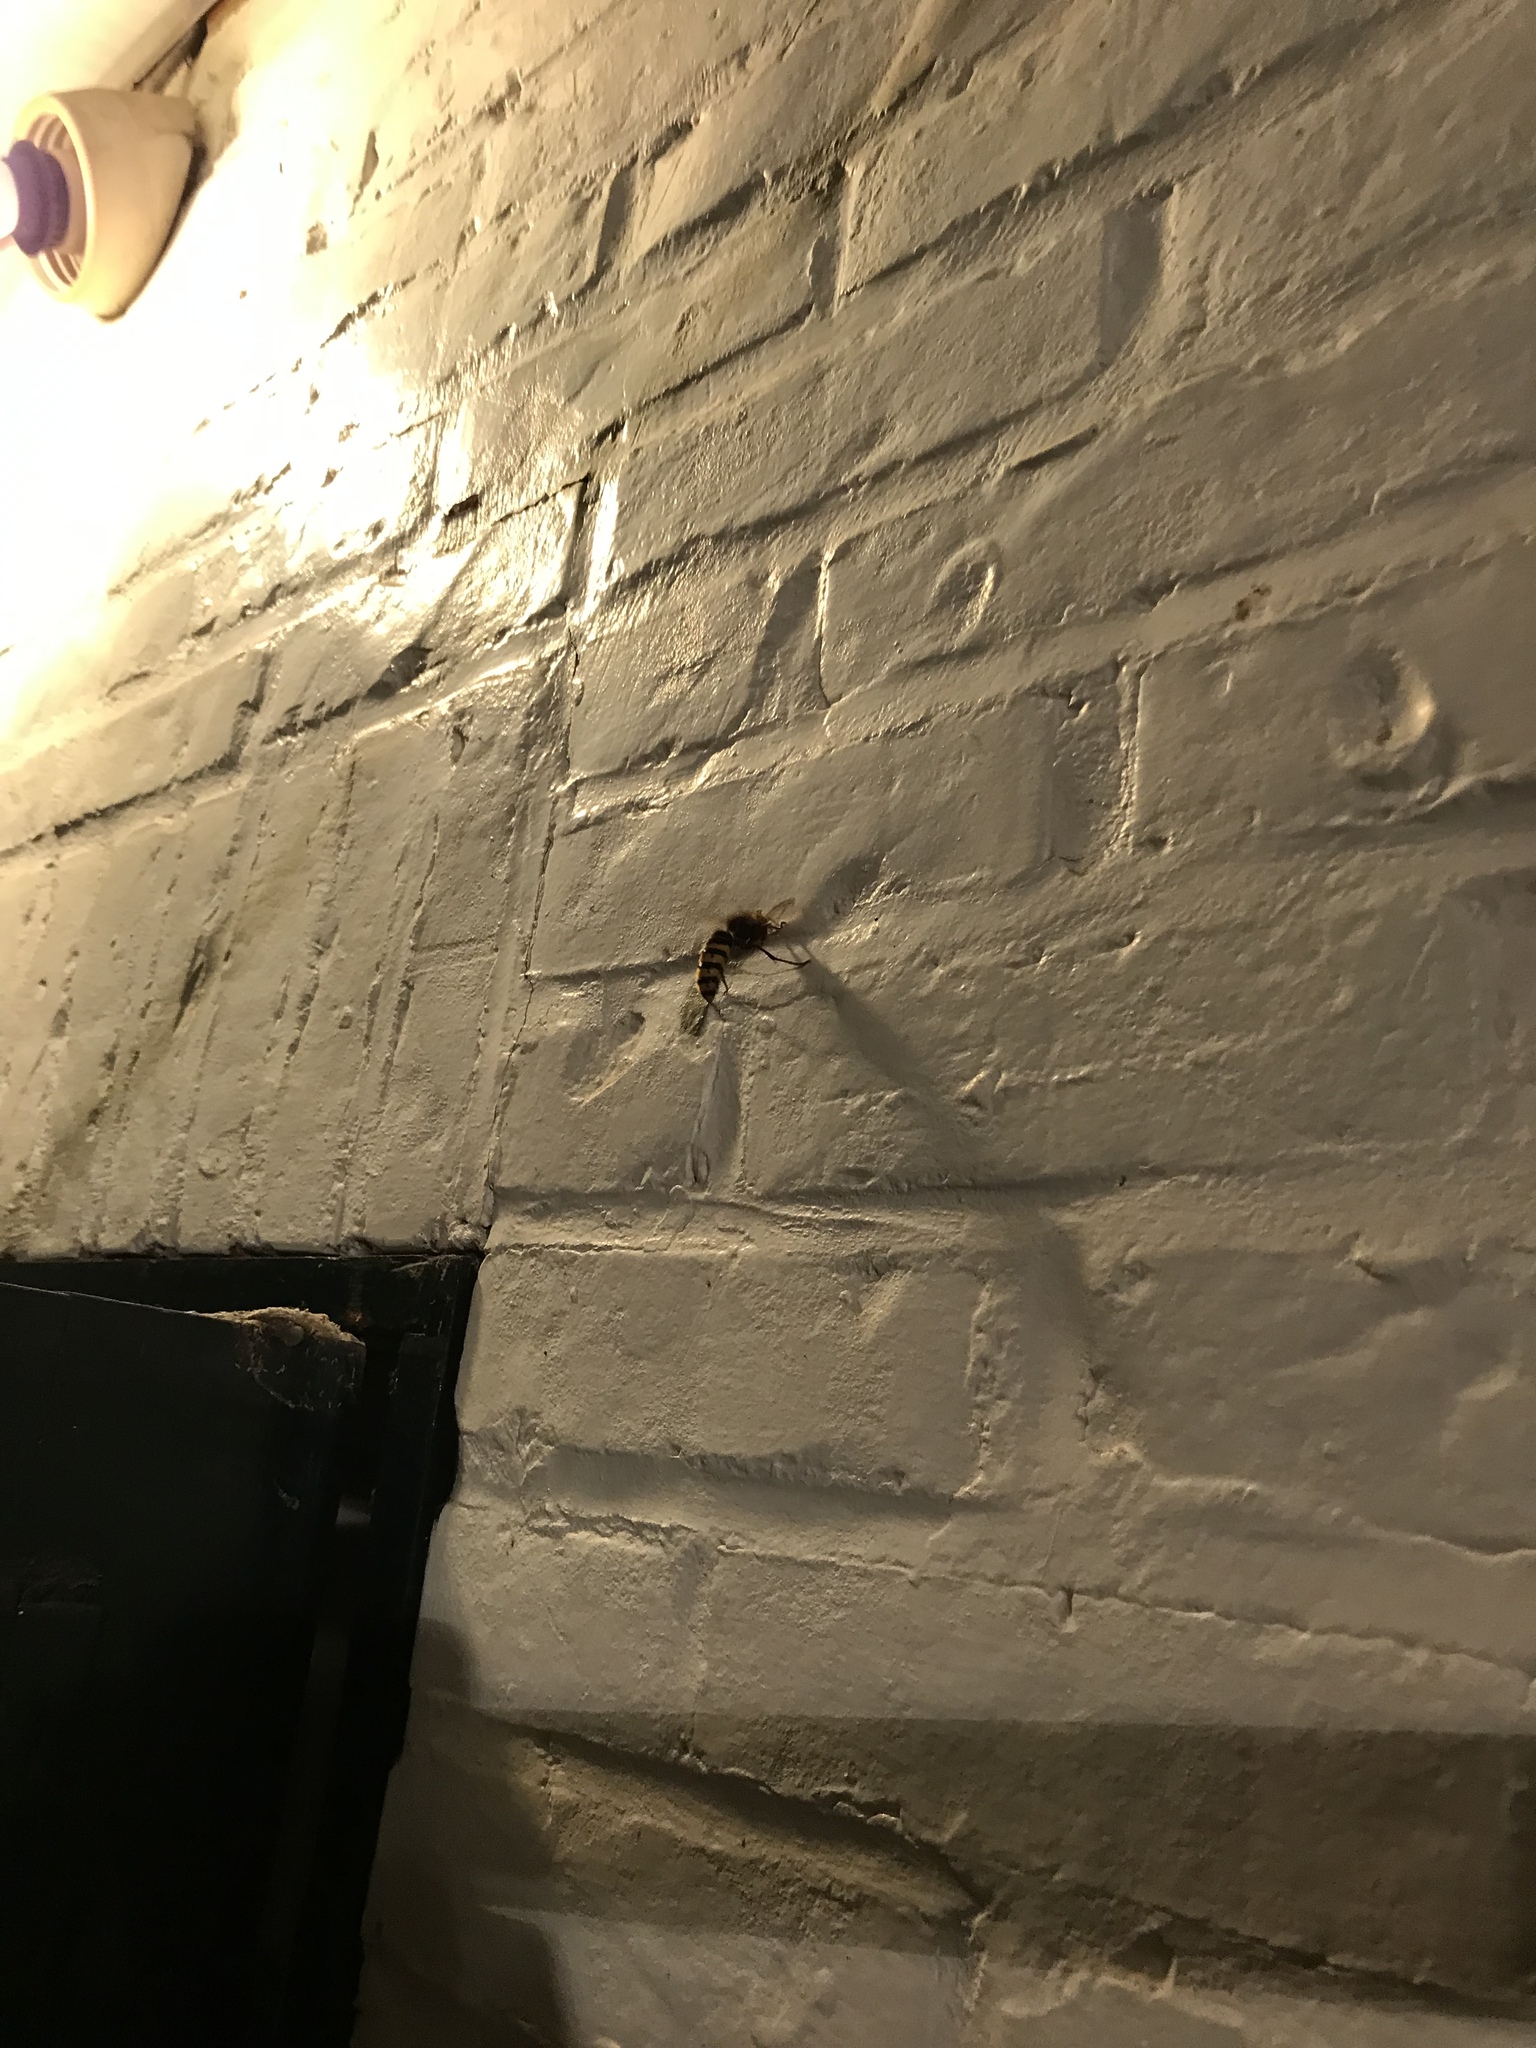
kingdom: Animalia
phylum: Arthropoda
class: Insecta
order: Hymenoptera
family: Vespidae
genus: Vespa
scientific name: Vespa crabro
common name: Hornet
